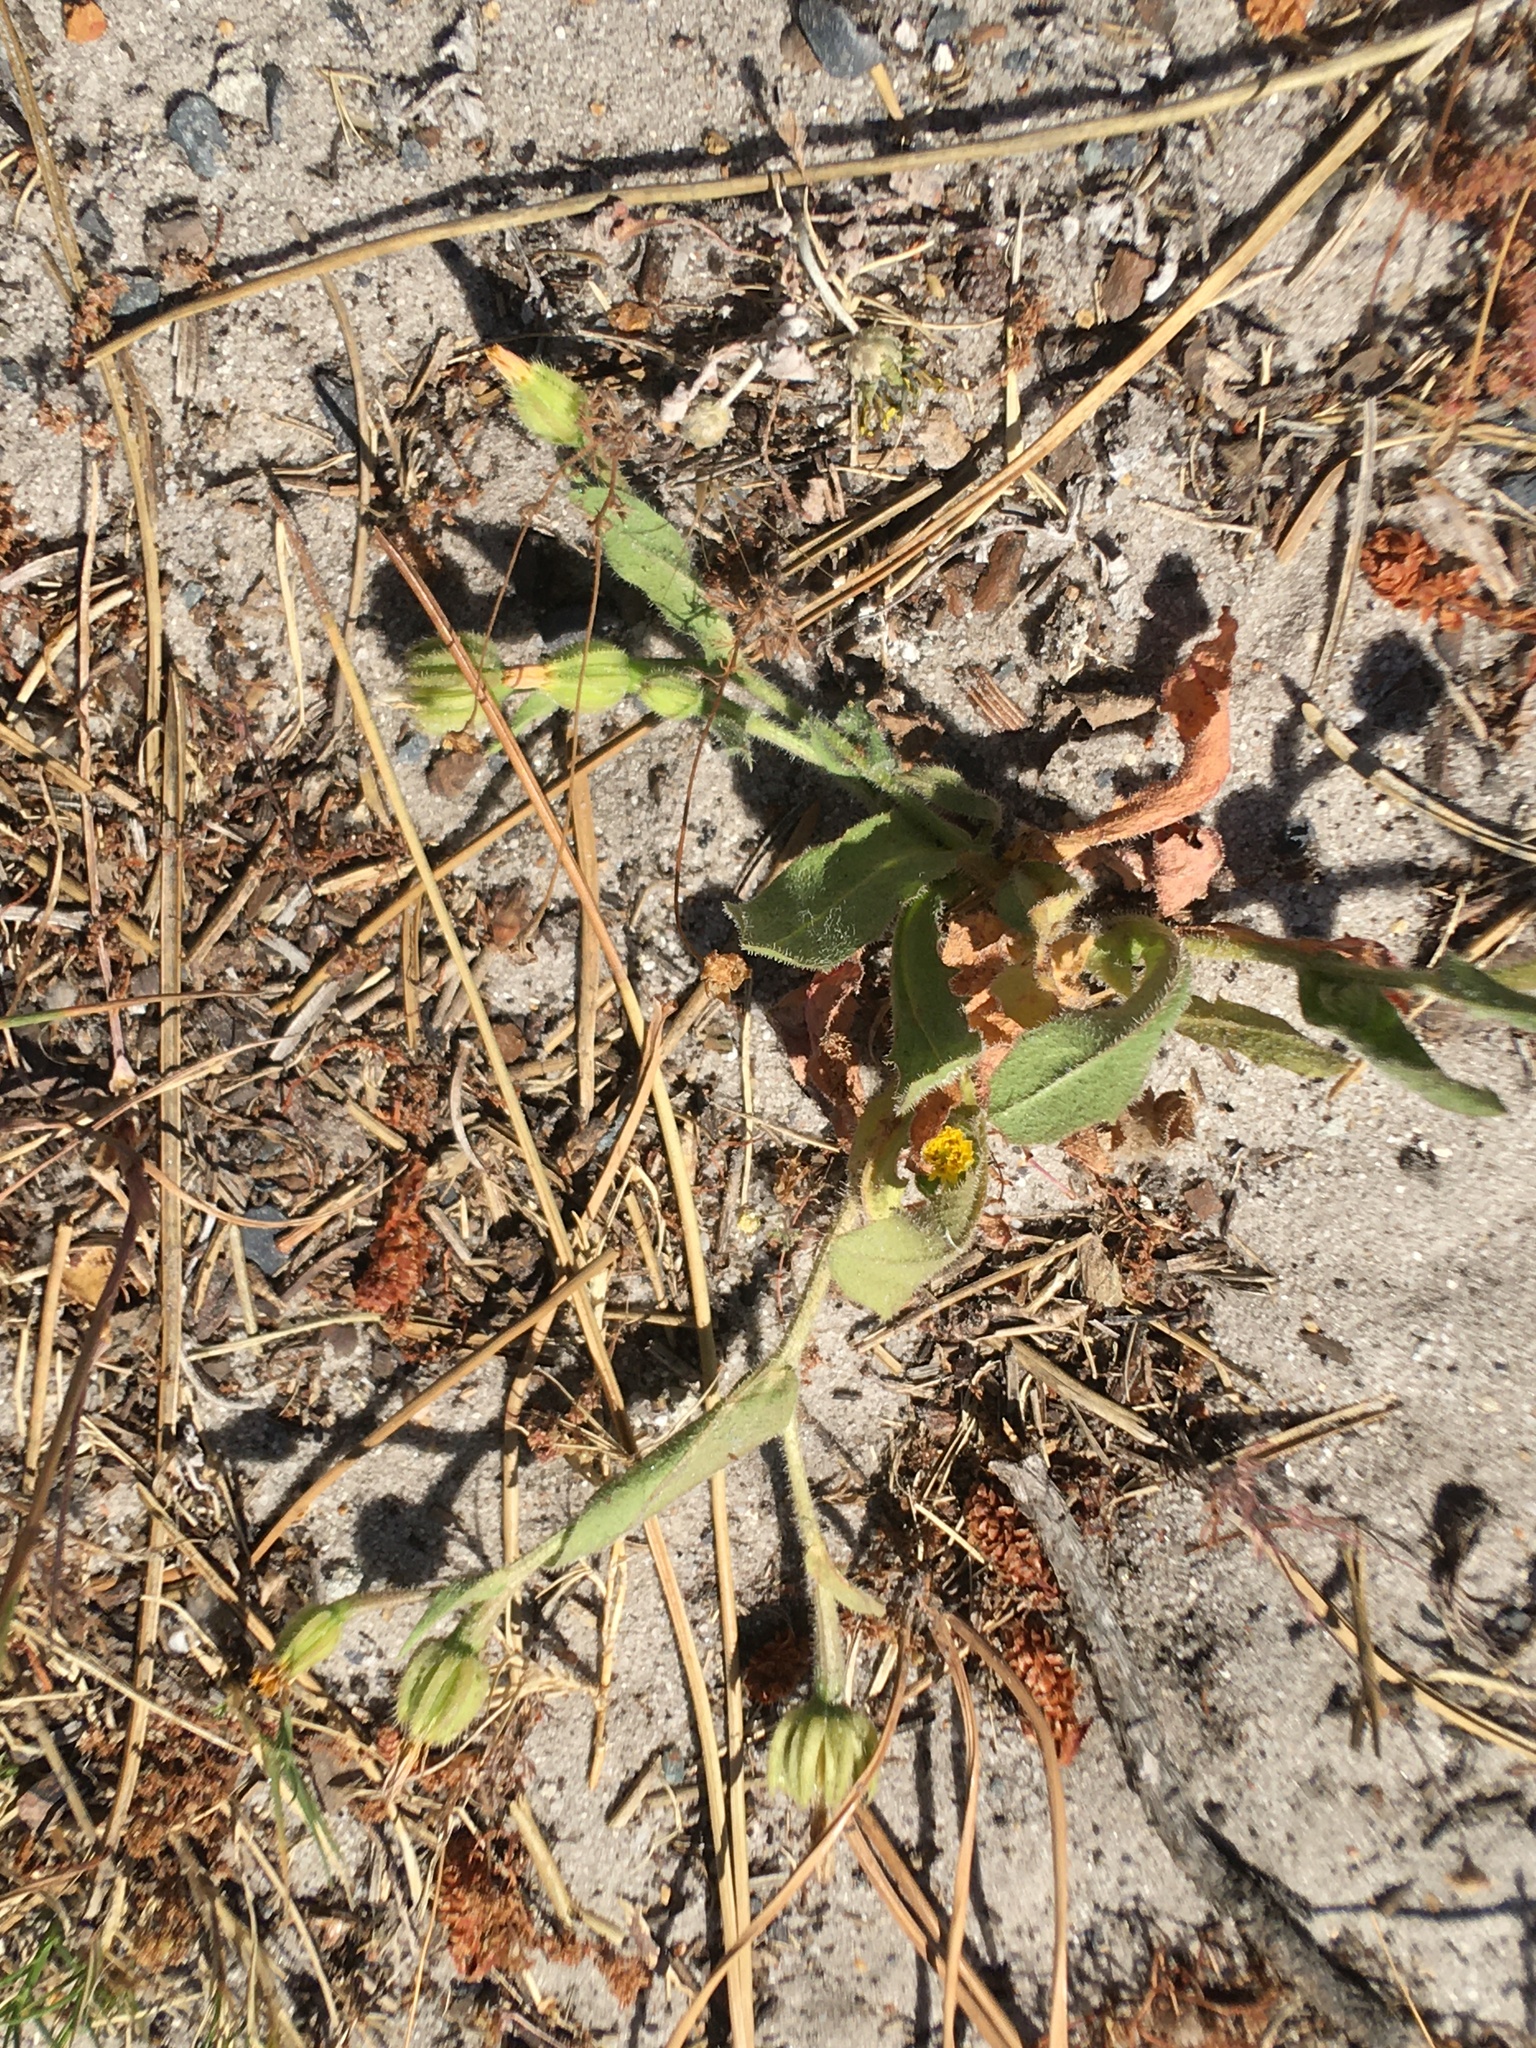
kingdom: Plantae
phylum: Tracheophyta
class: Magnoliopsida
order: Asterales
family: Asteraceae
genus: Hedypnois
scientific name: Hedypnois rhagadioloides
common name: Cretan weed
